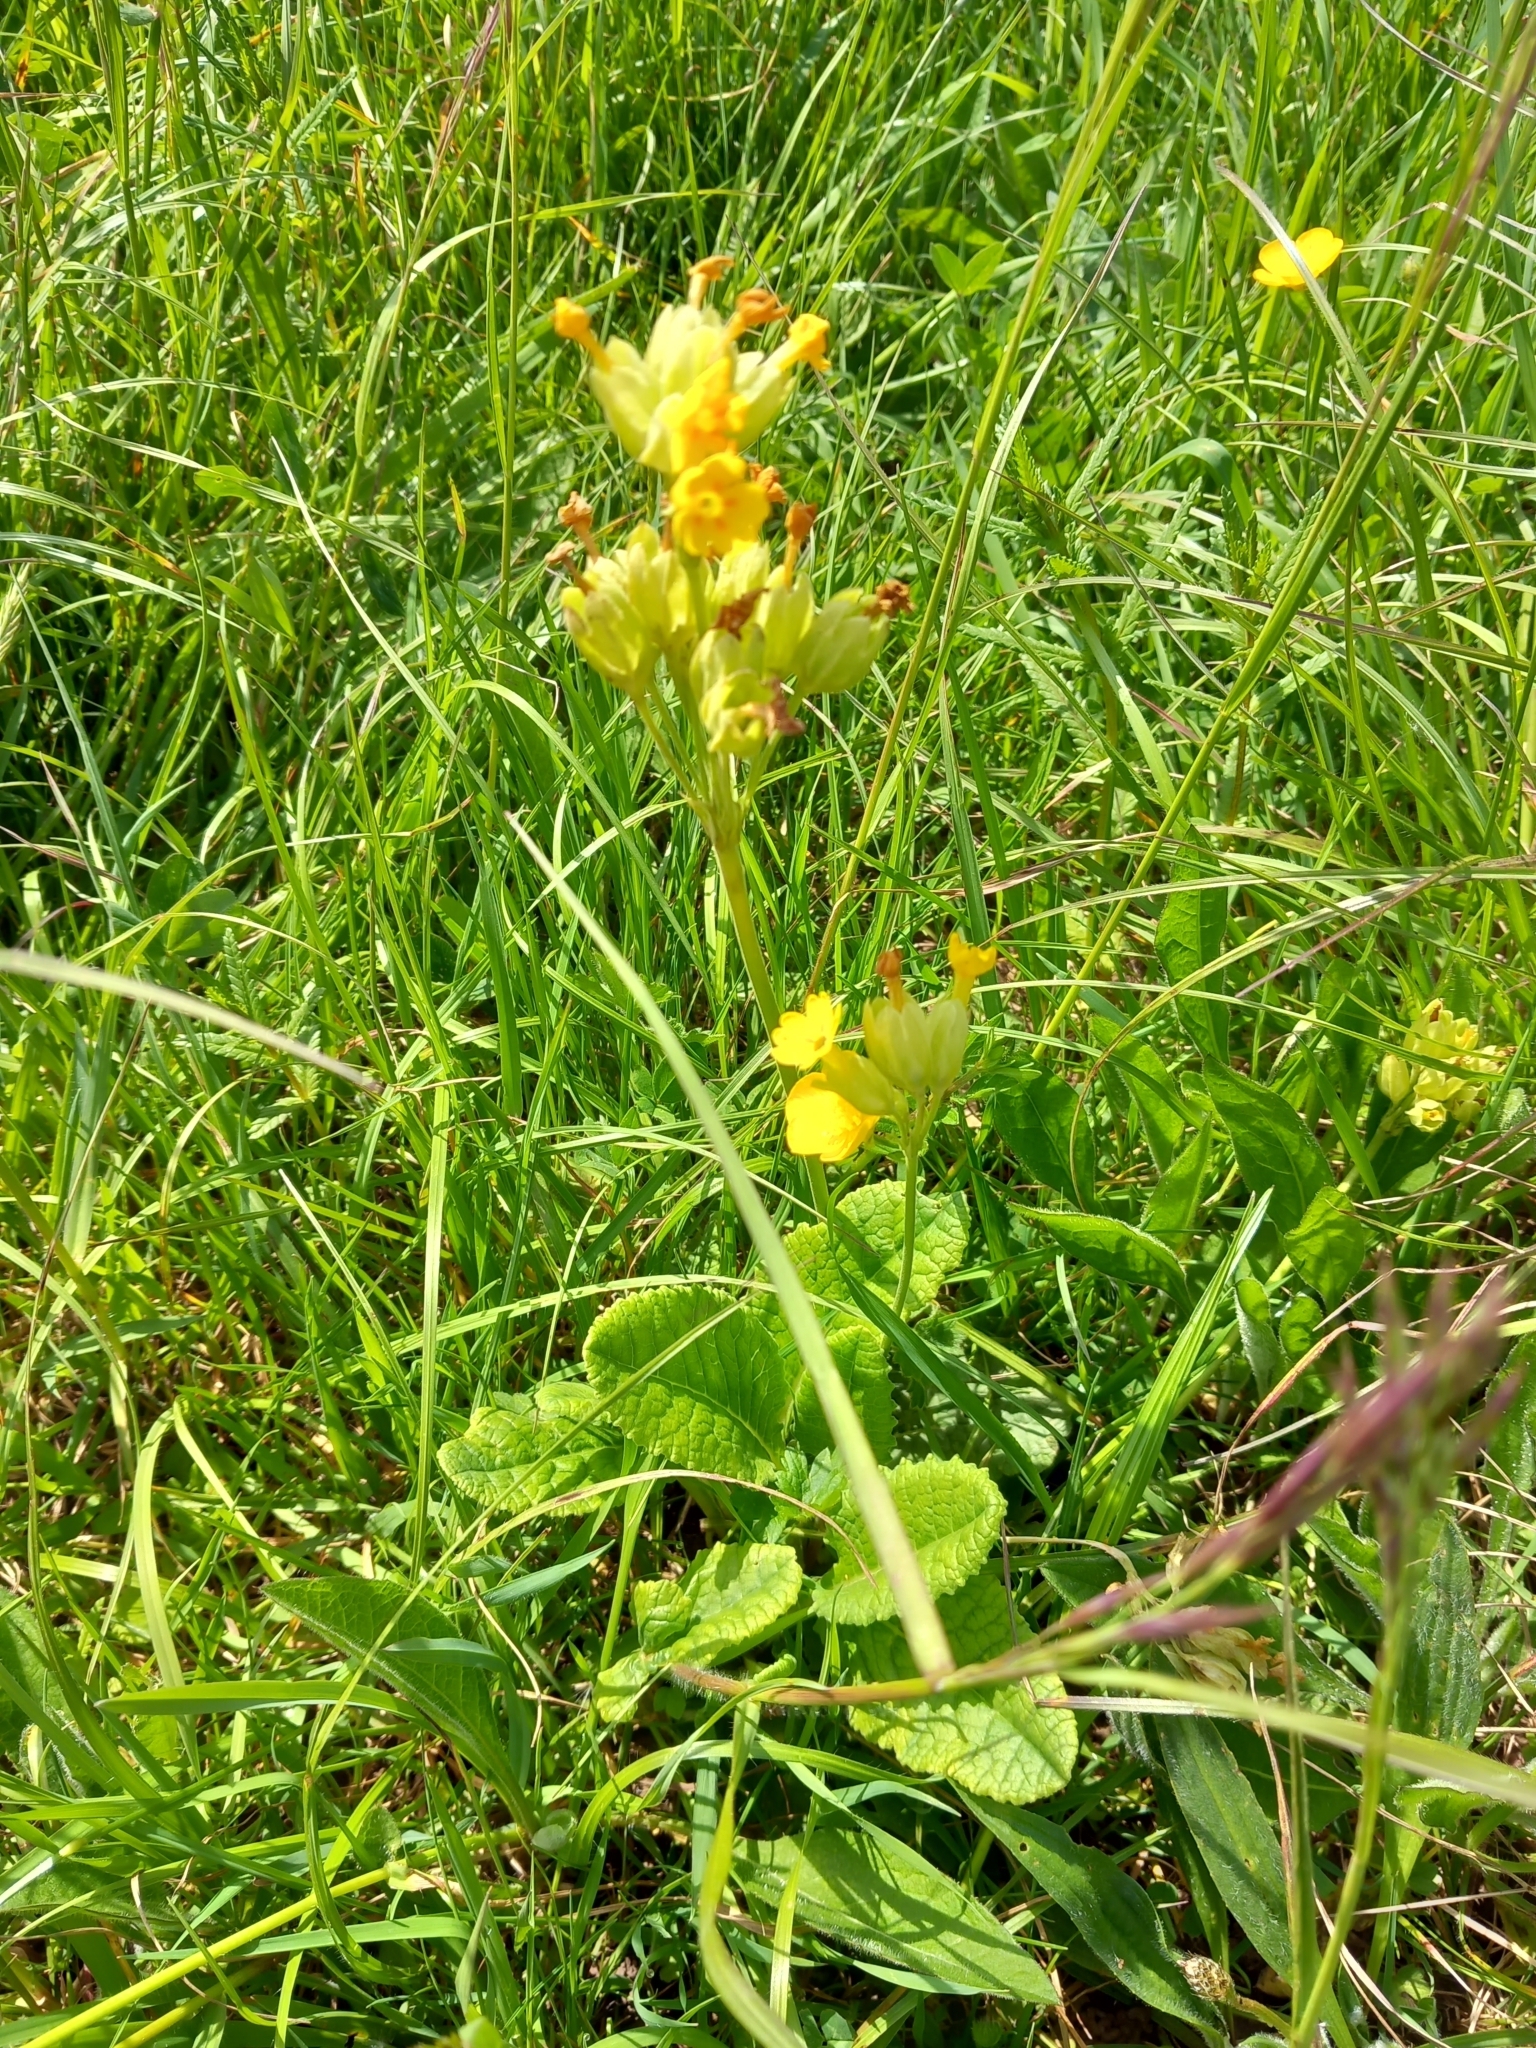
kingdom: Plantae
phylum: Tracheophyta
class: Magnoliopsida
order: Ericales
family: Primulaceae
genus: Primula
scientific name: Primula veris
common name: Cowslip
